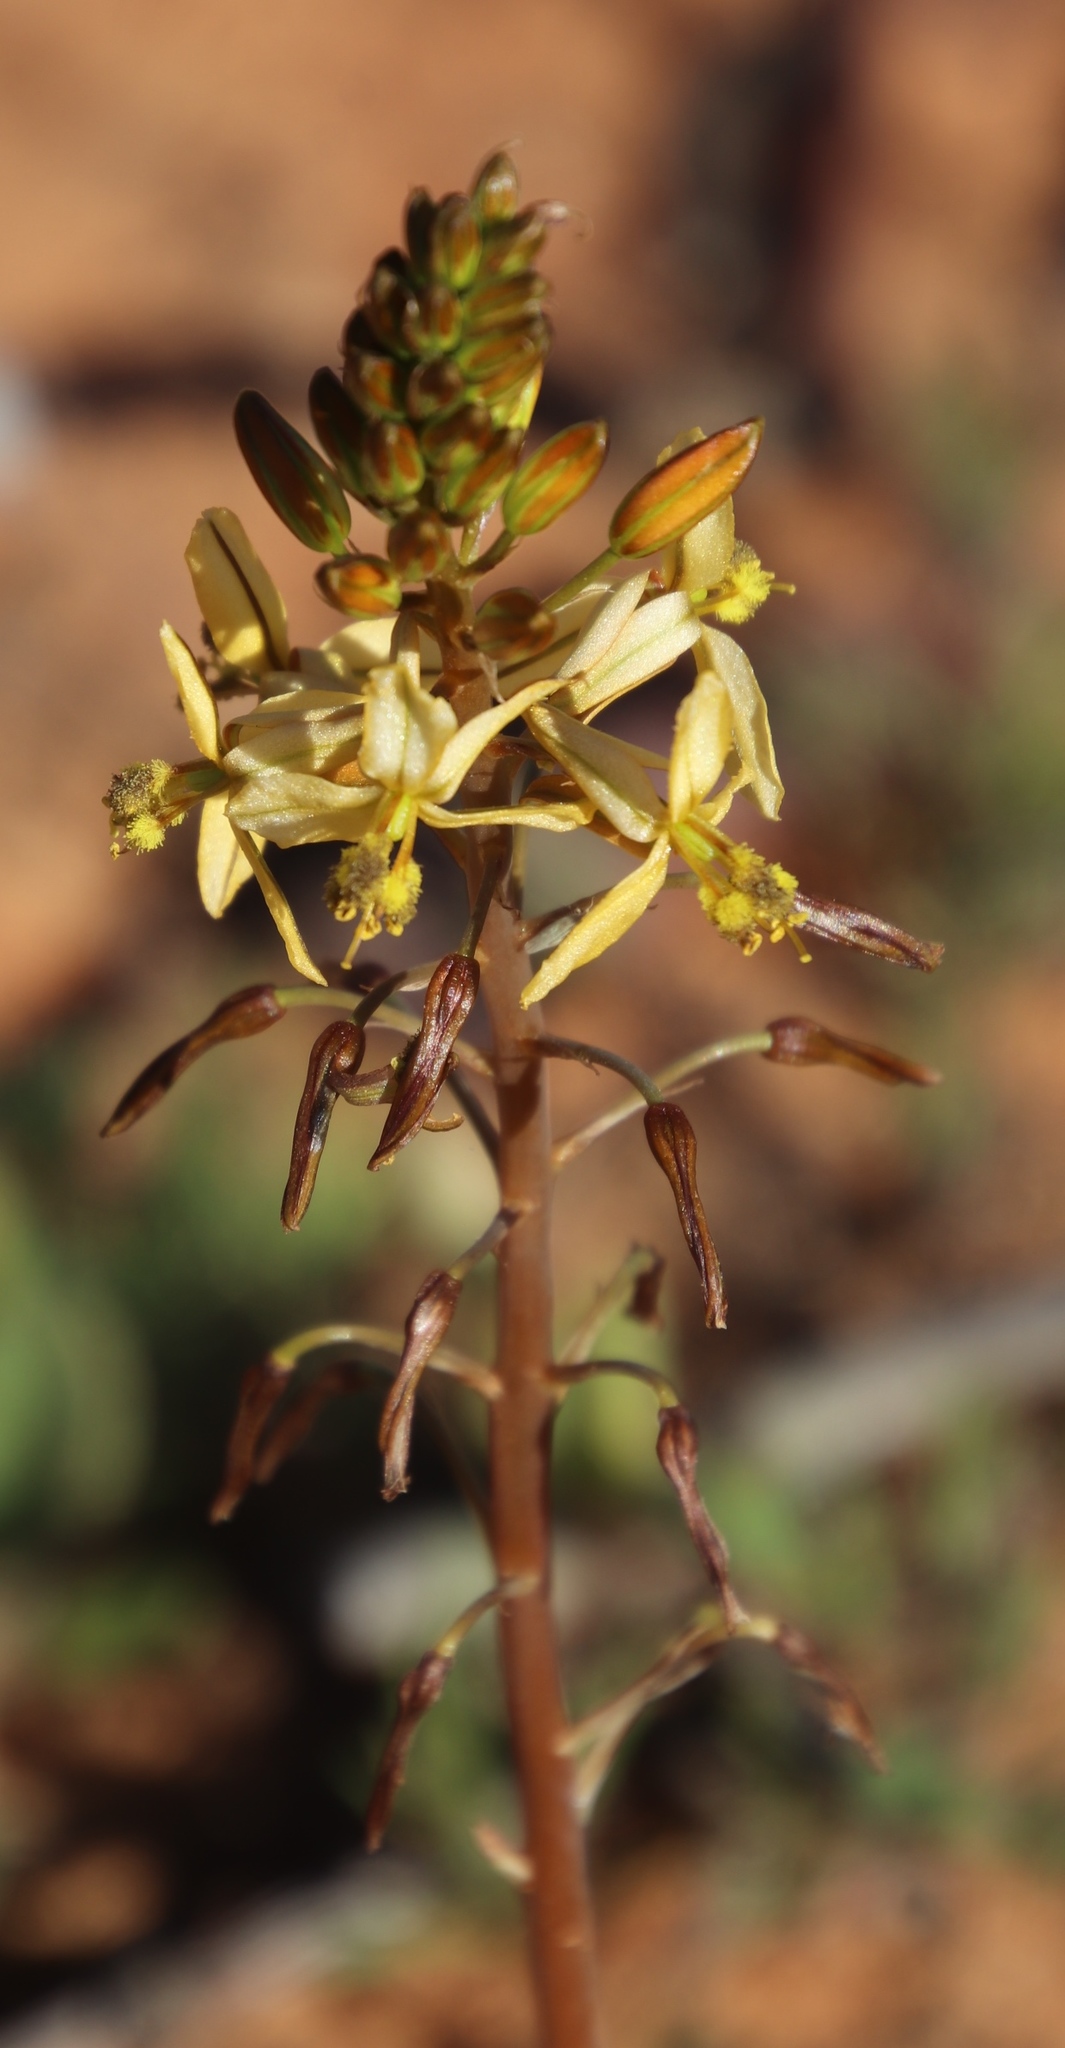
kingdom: Plantae
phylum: Tracheophyta
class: Liliopsida
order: Asparagales
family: Asphodelaceae
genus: Bulbine
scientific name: Bulbine navicularifolia
